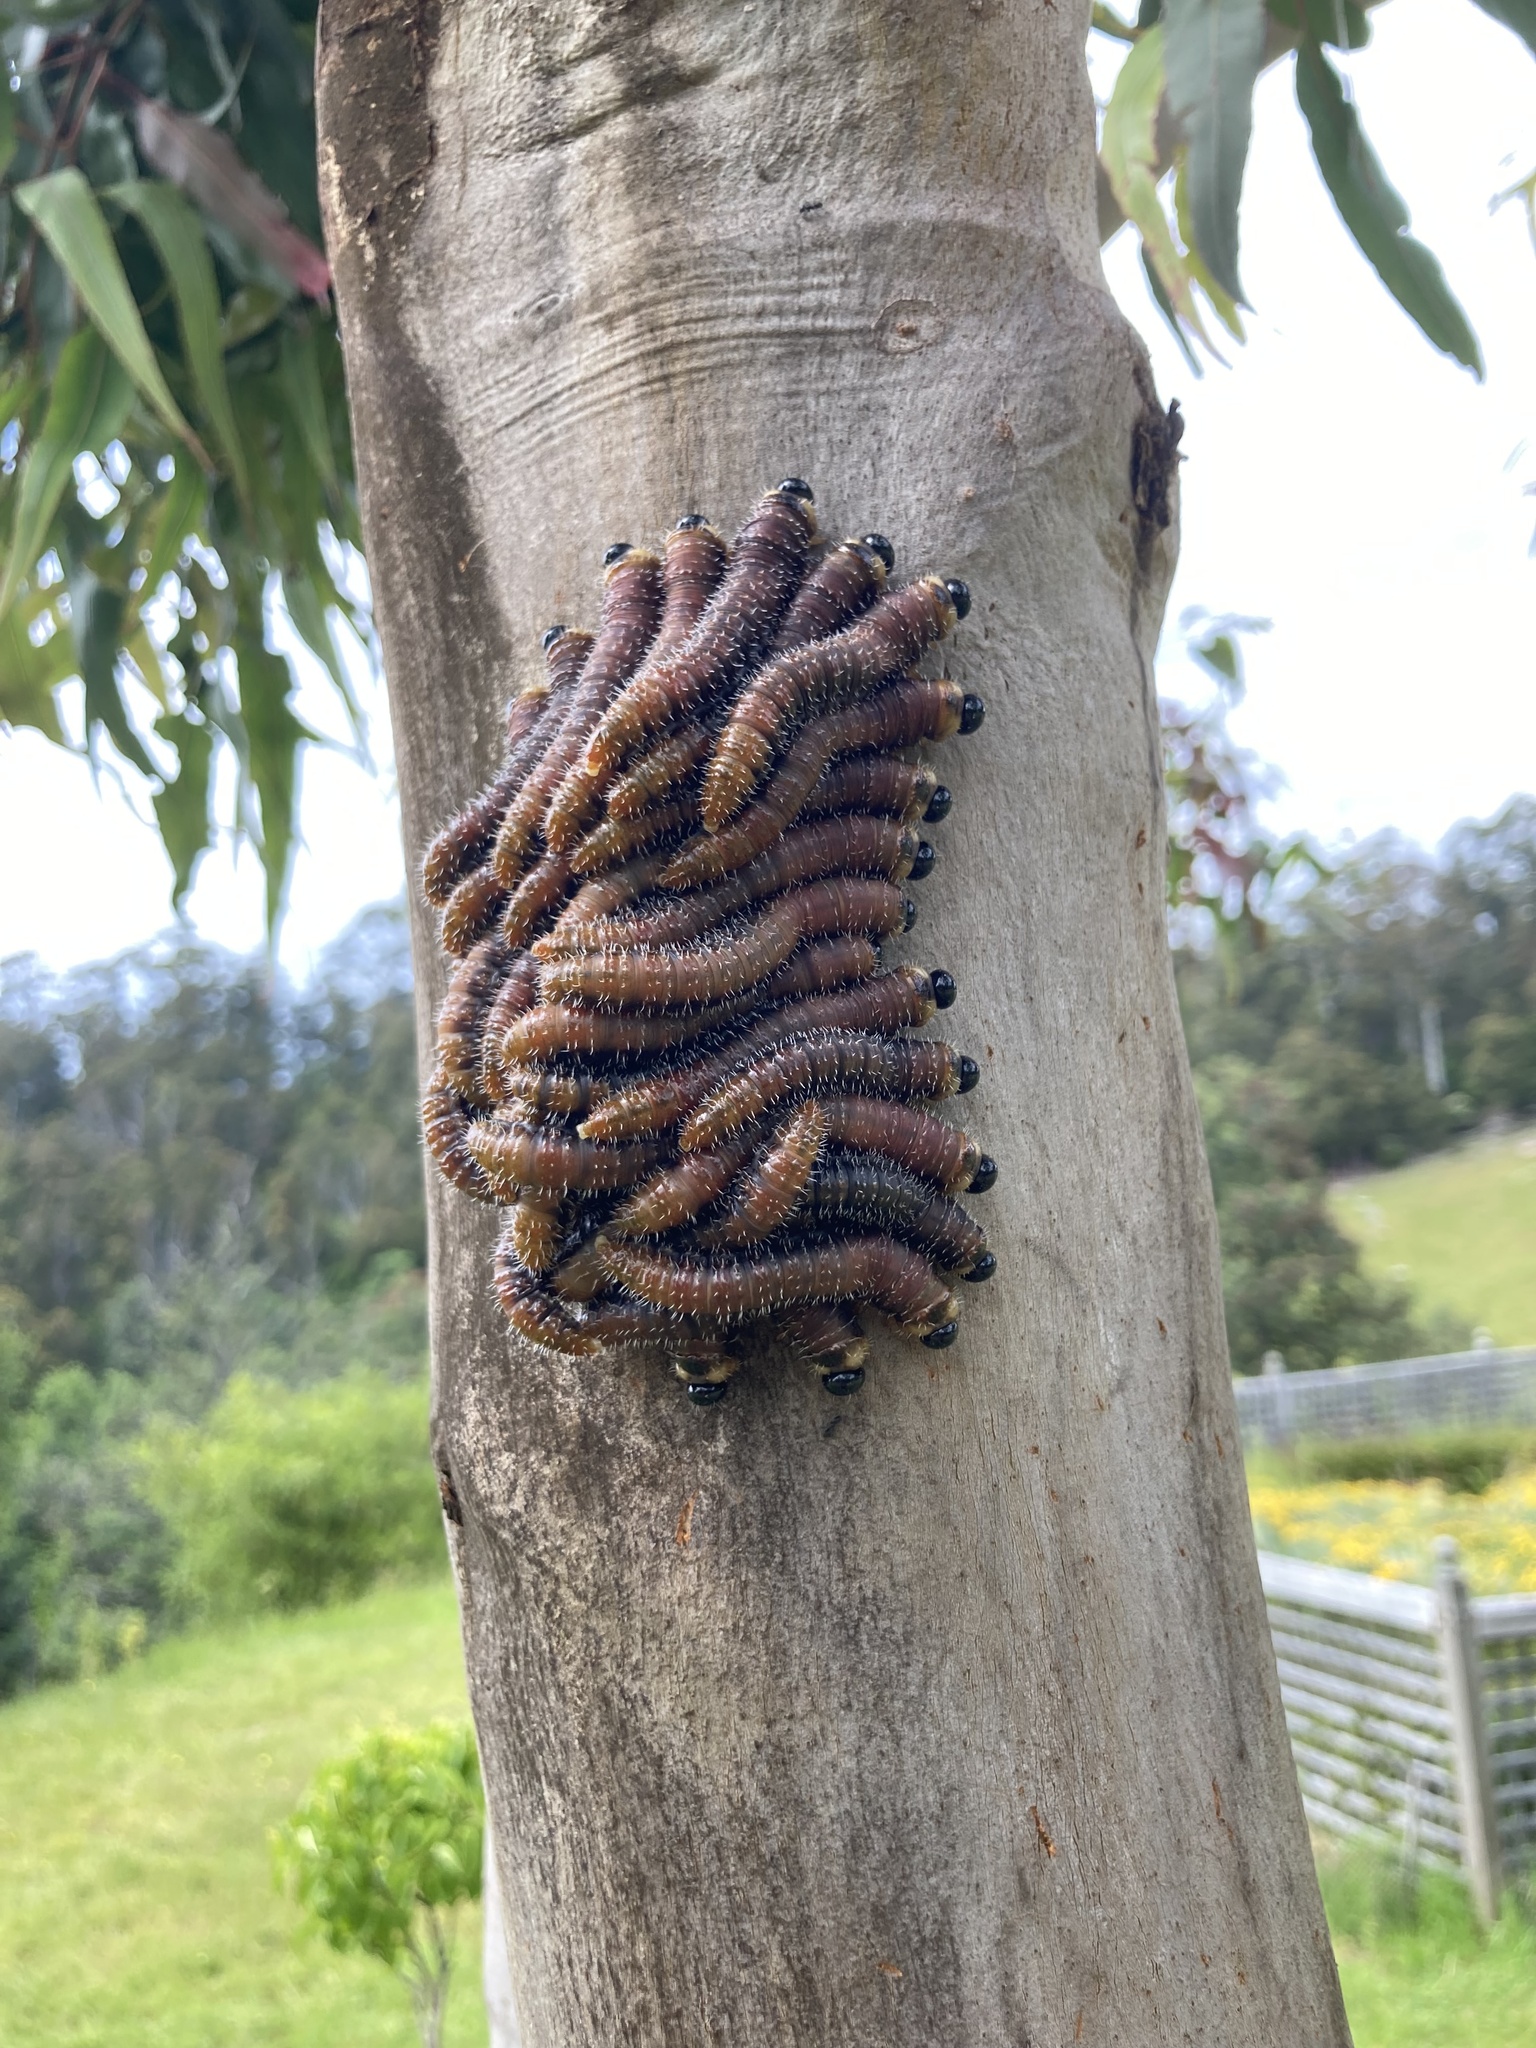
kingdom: Animalia
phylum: Arthropoda
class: Insecta
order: Hymenoptera
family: Pergidae
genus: Perga
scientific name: Perga affinis
